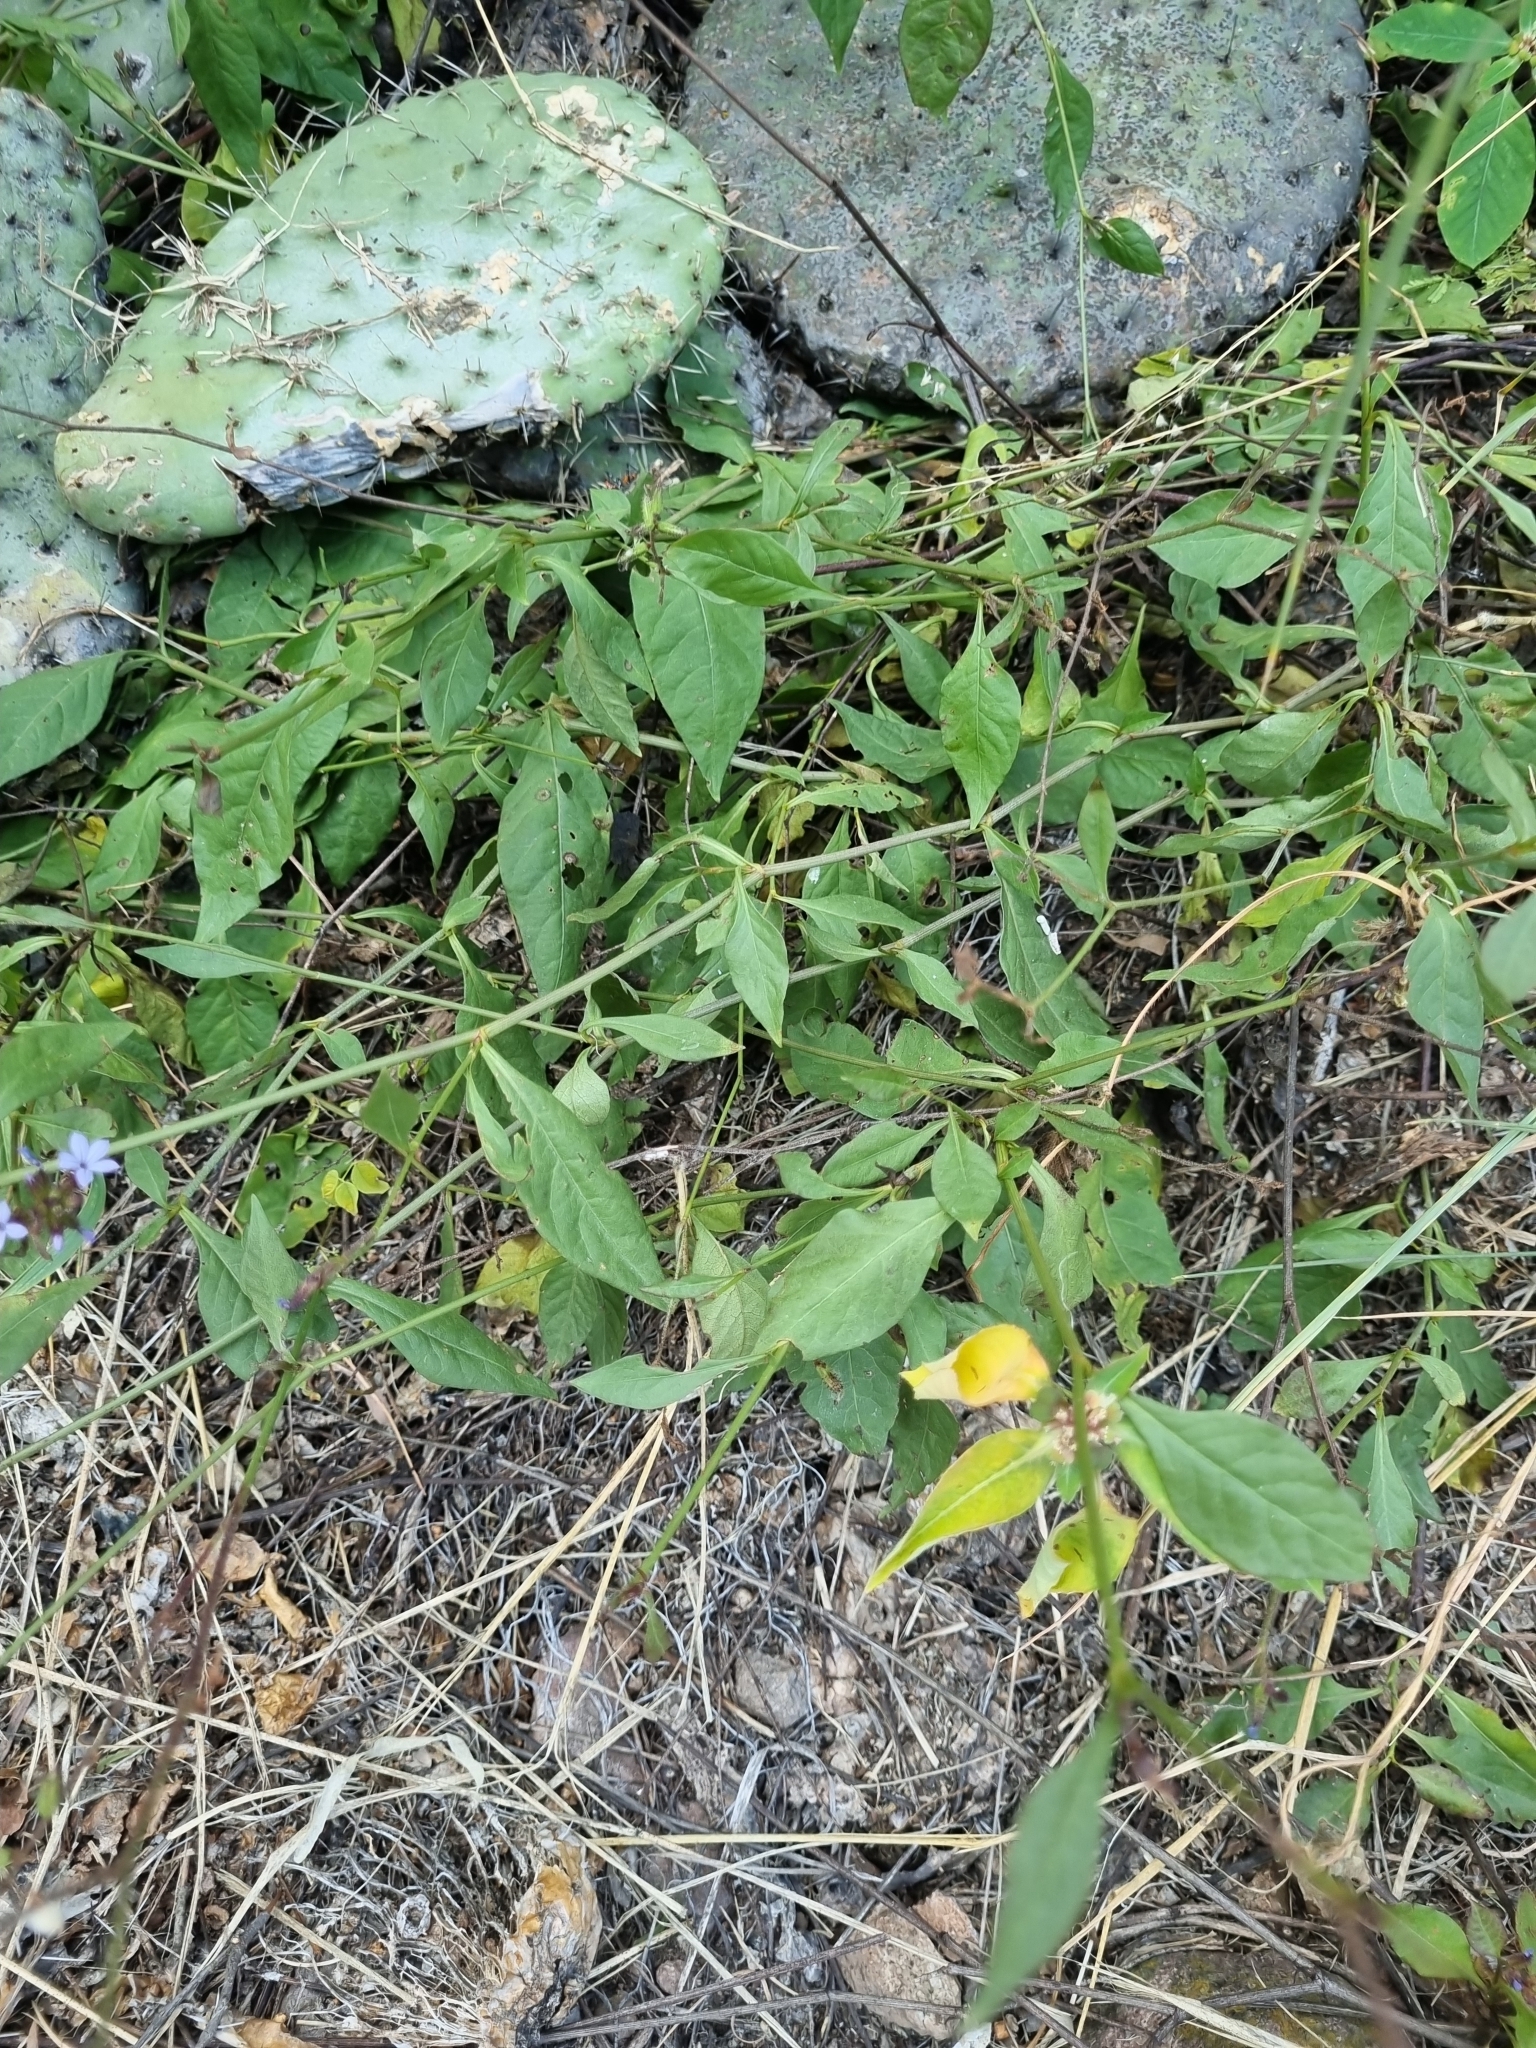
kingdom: Plantae
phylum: Tracheophyta
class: Magnoliopsida
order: Caryophyllales
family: Plumbaginaceae
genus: Plumbago
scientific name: Plumbago pulchella
